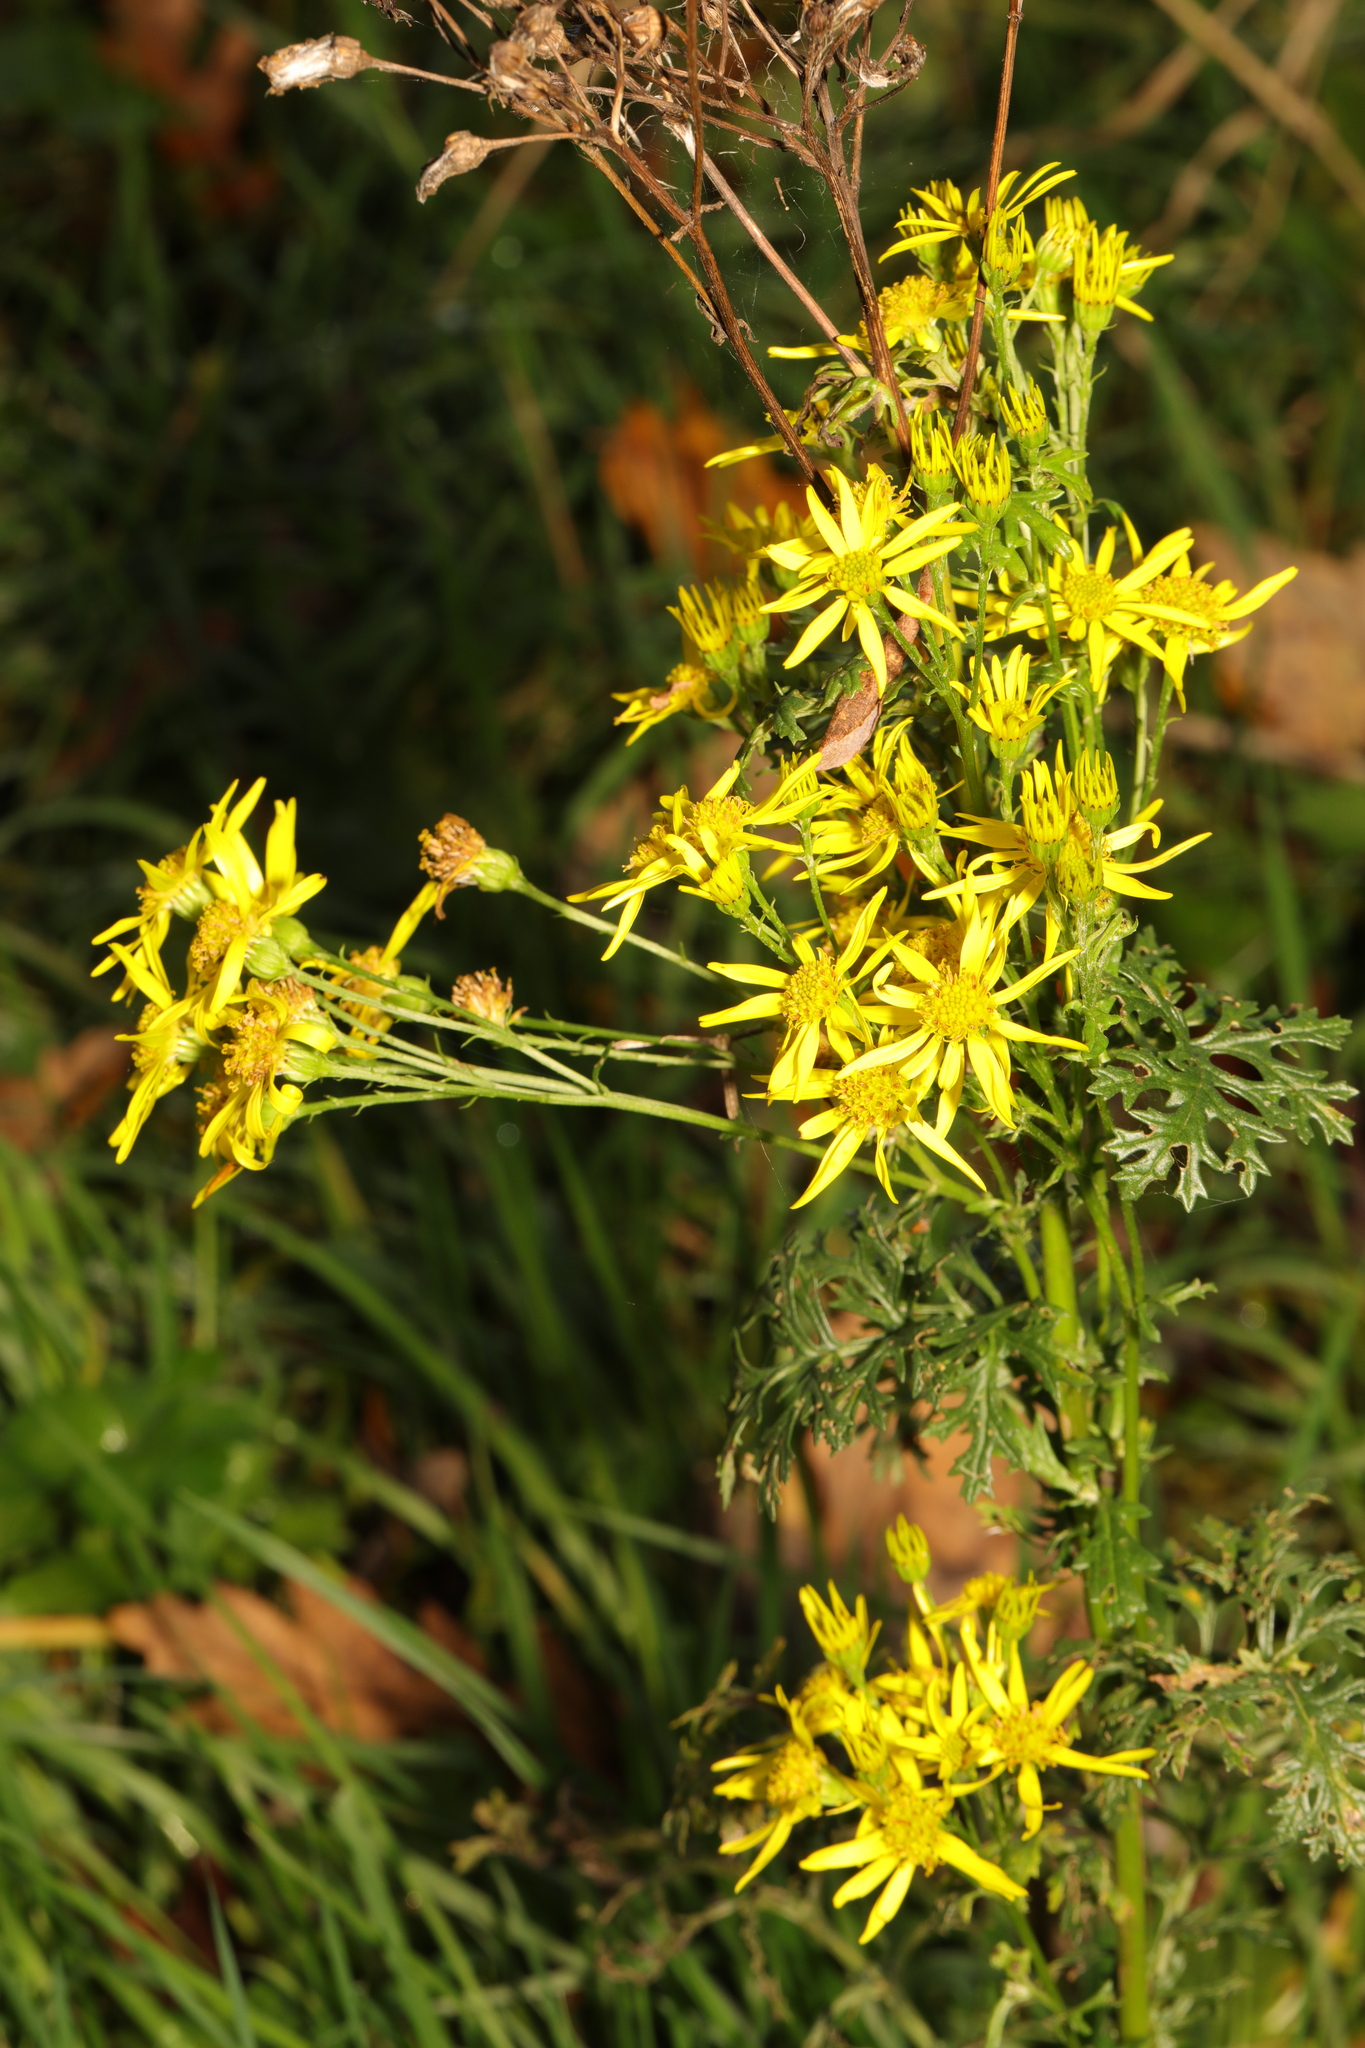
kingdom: Plantae
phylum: Tracheophyta
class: Magnoliopsida
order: Asterales
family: Asteraceae
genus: Jacobaea
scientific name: Jacobaea vulgaris
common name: Stinking willie
